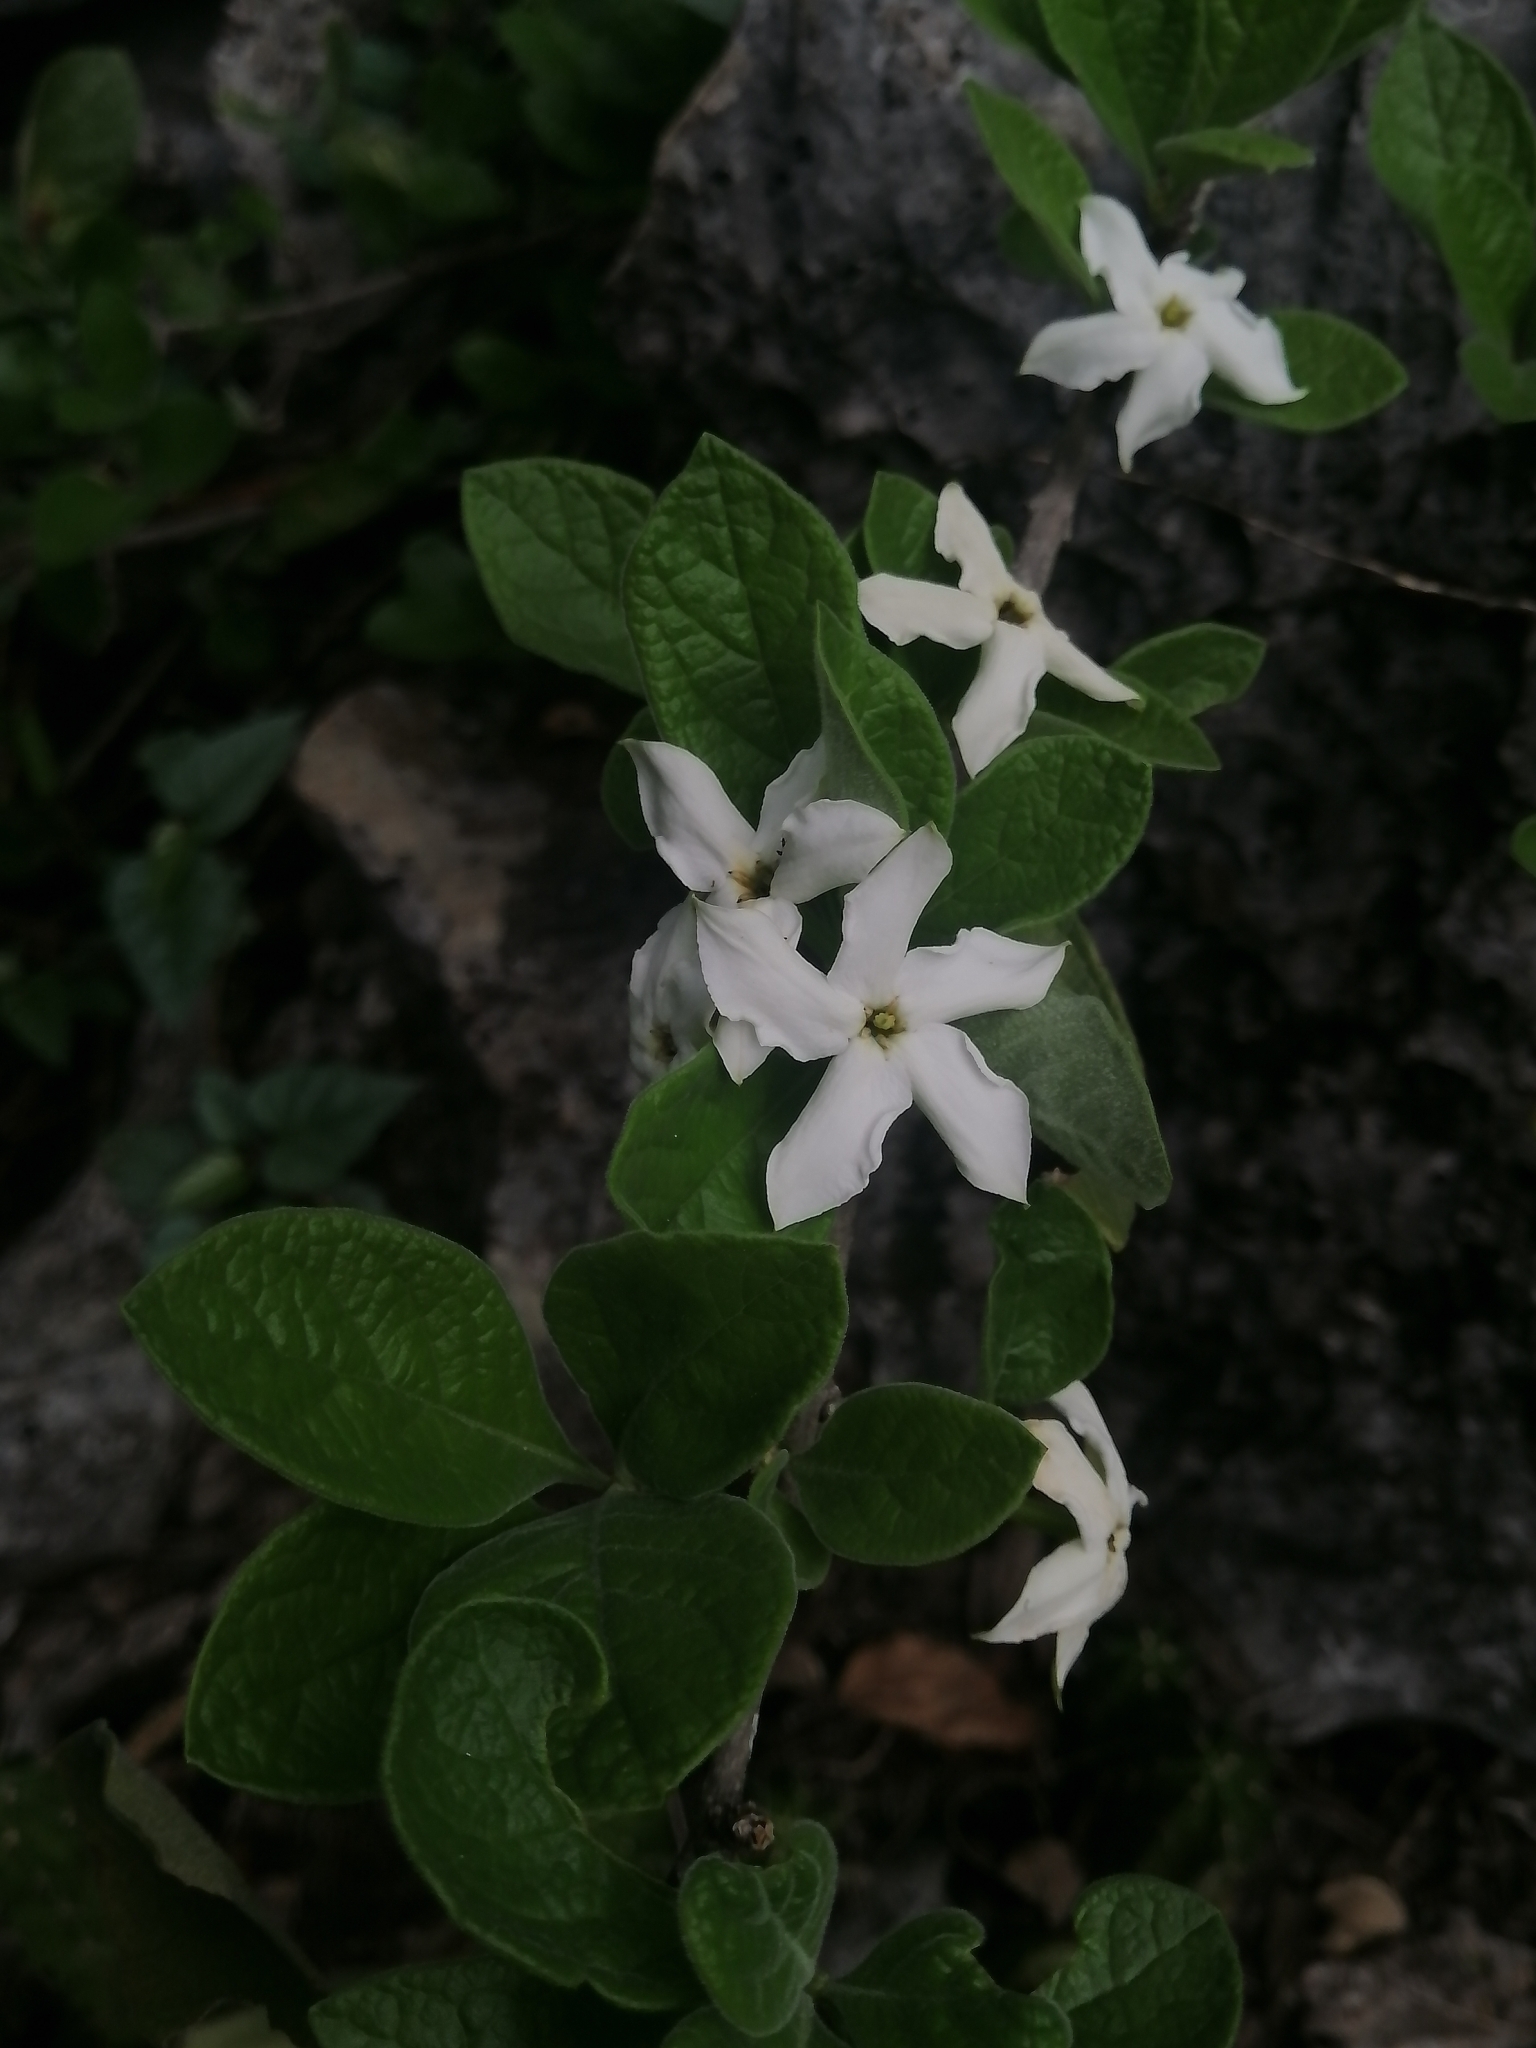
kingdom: Plantae
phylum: Tracheophyta
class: Magnoliopsida
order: Gentianales
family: Rubiaceae
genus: Randia
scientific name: Randia pringlei
